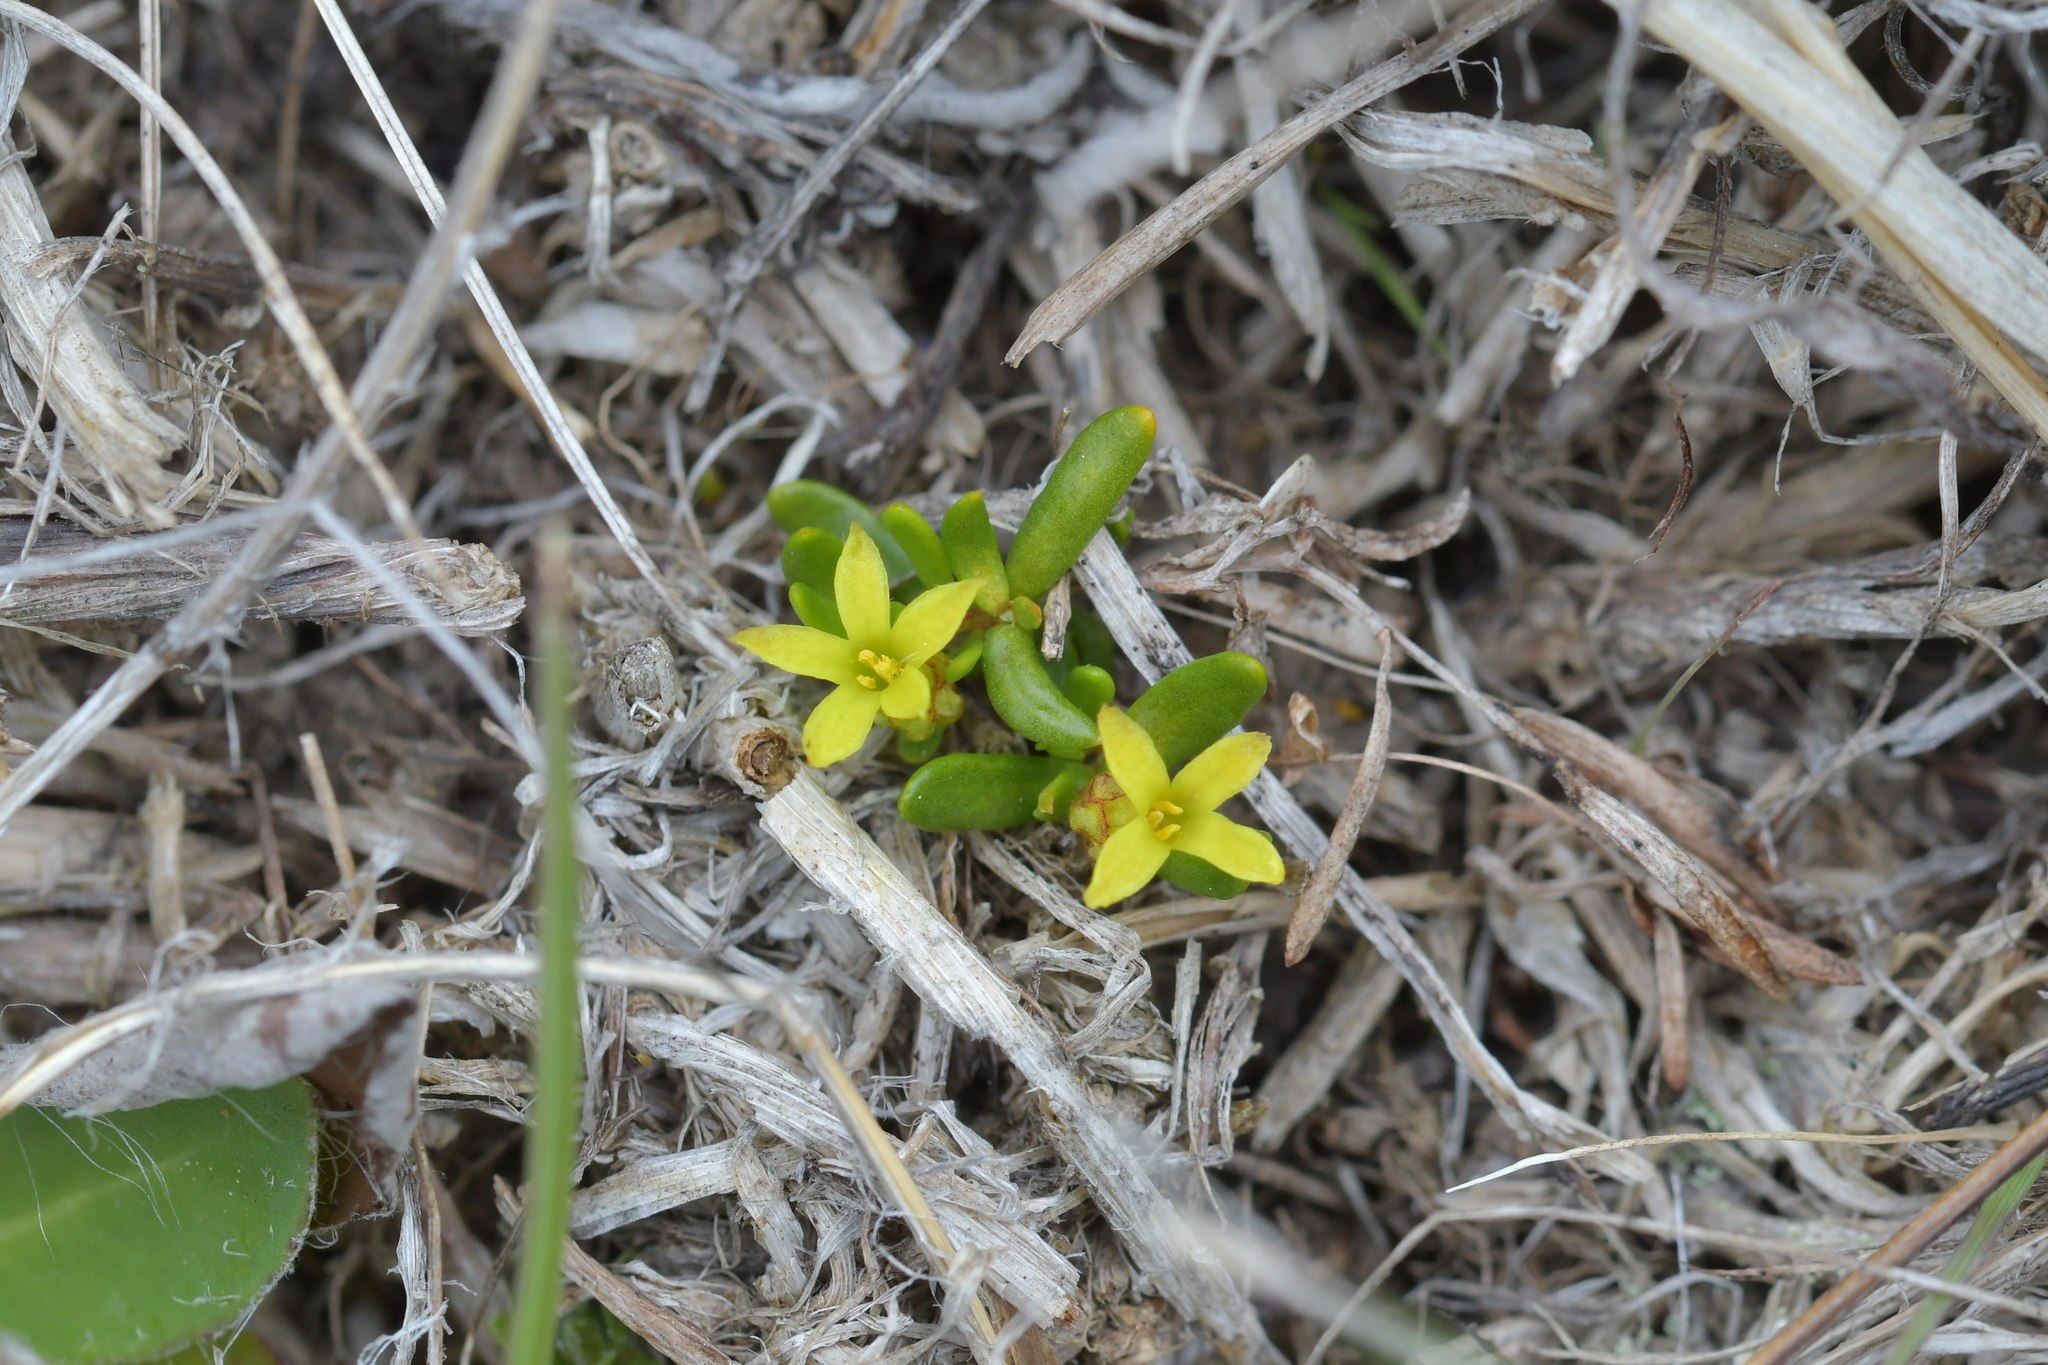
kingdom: Plantae
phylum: Tracheophyta
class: Magnoliopsida
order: Celastrales
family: Celastraceae
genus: Stackhousia
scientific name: Stackhousia minima
